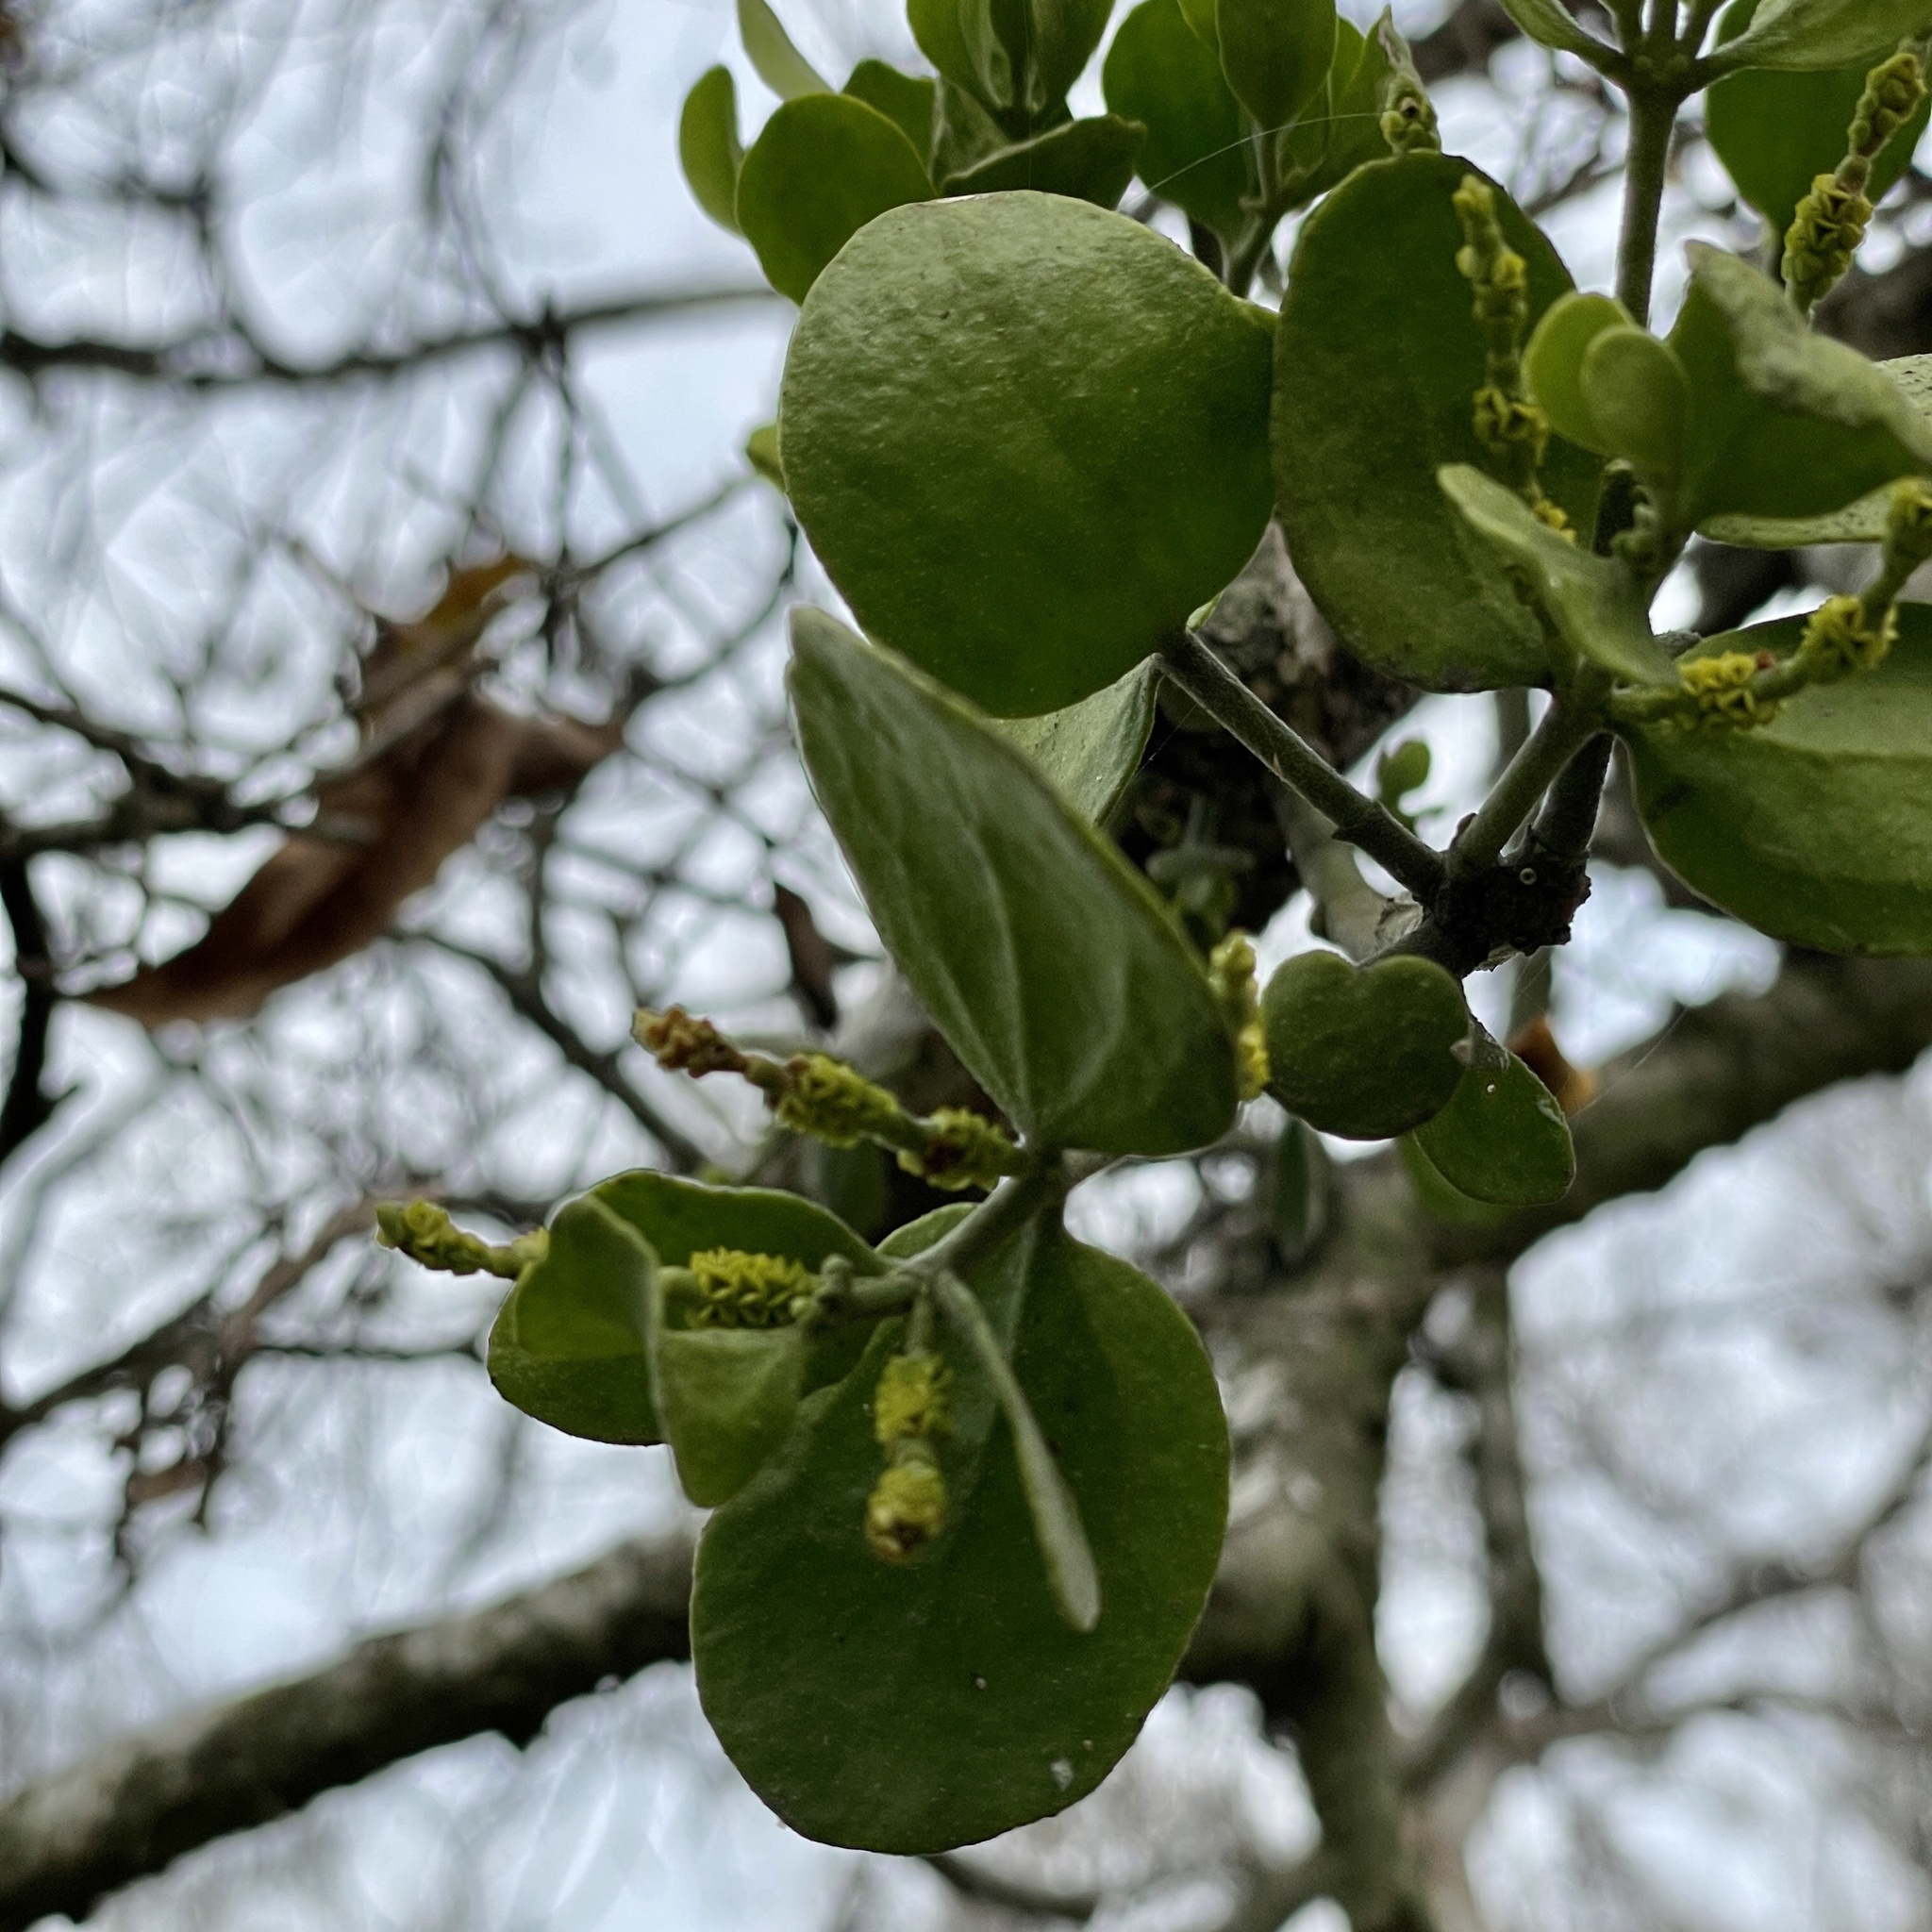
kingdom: Plantae
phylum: Tracheophyta
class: Magnoliopsida
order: Santalales
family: Viscaceae
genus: Phoradendron
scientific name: Phoradendron leucarpum
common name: Pacific mistletoe
